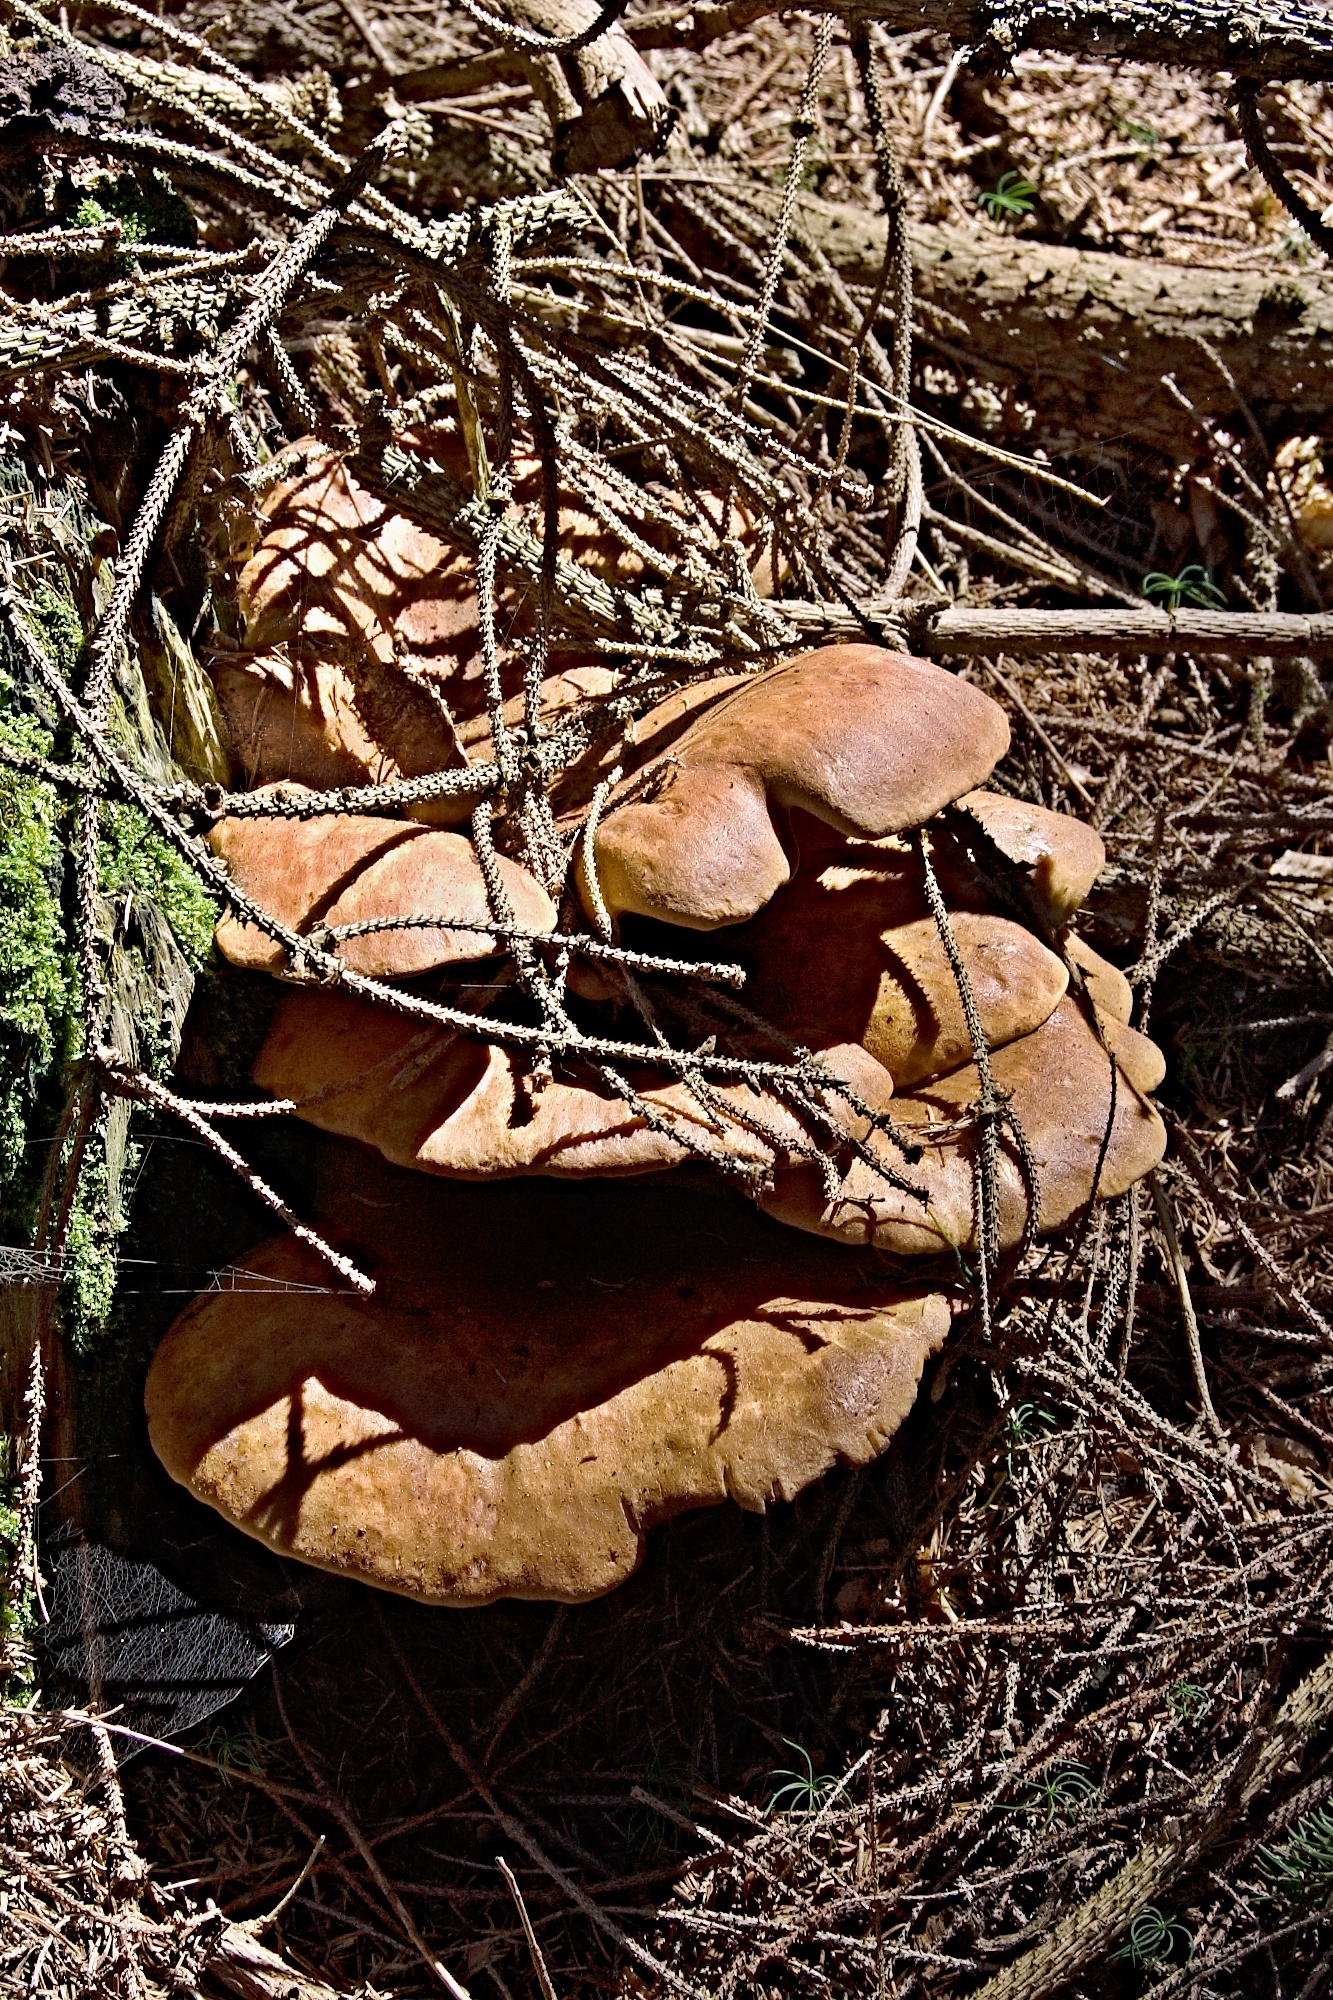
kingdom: Fungi
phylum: Basidiomycota
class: Agaricomycetes
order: Boletales
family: Tapinellaceae
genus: Tapinella
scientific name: Tapinella atrotomentosa
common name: Velvet rollrim
